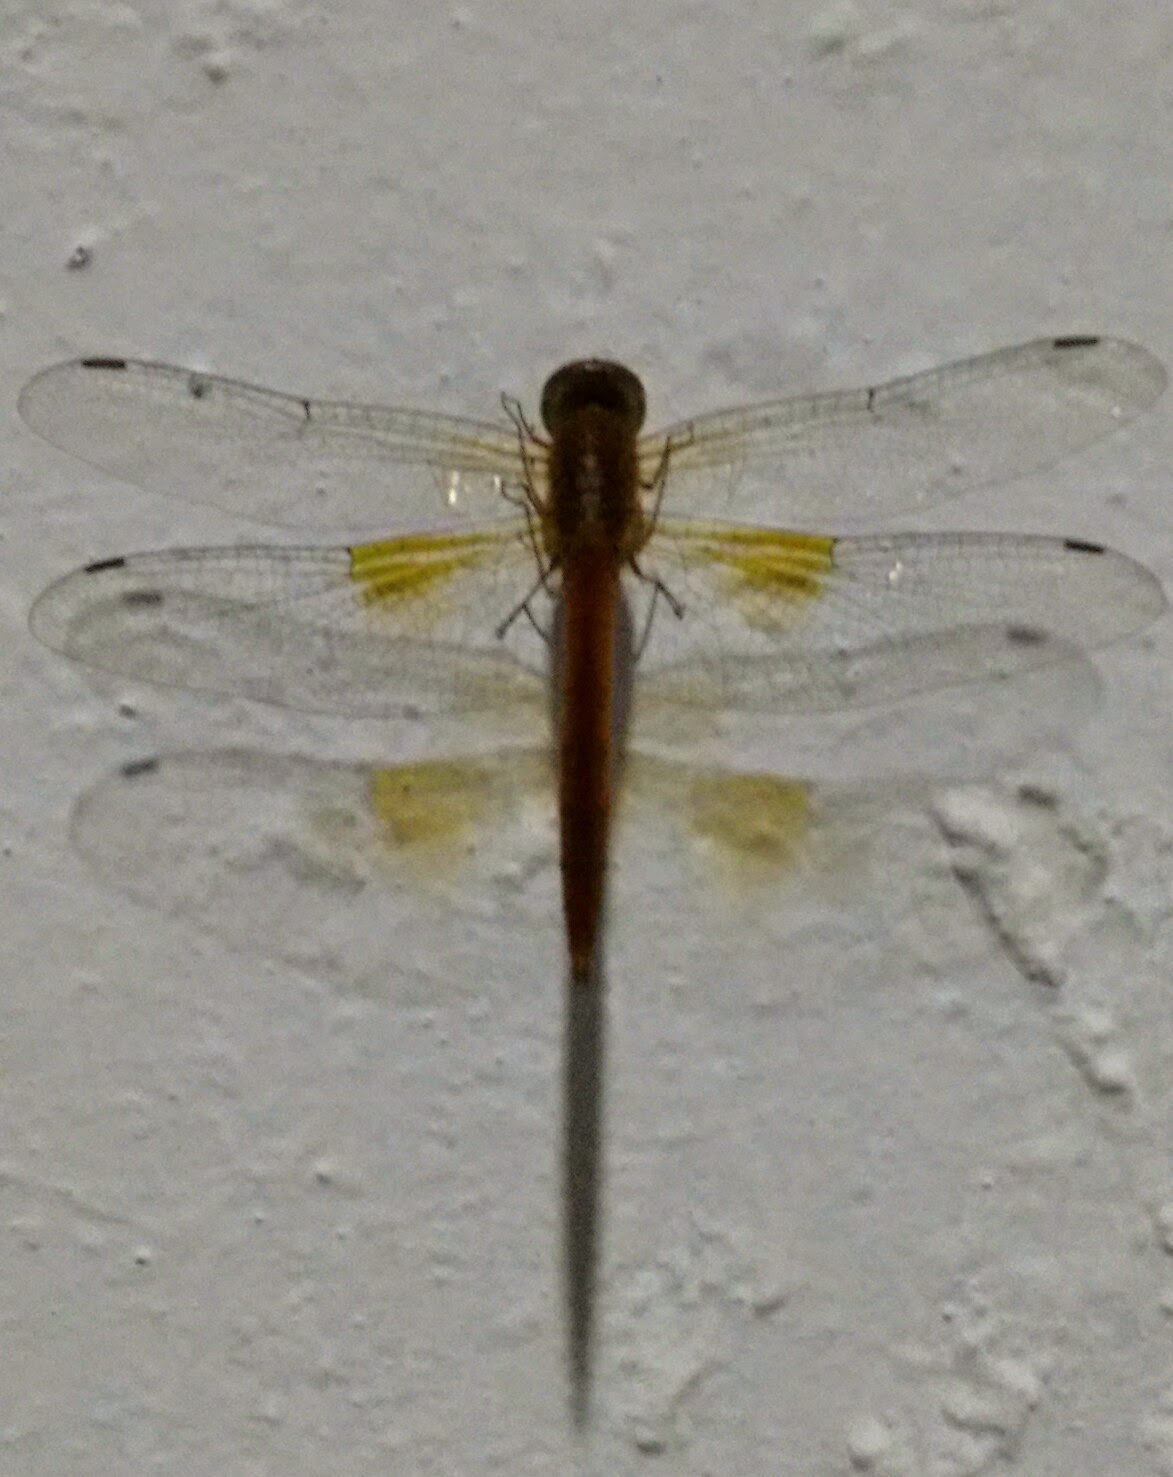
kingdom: Animalia
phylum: Arthropoda
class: Insecta
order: Odonata
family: Libellulidae
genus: Tholymis
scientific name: Tholymis tillarga
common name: Coral-tailed cloud wing
